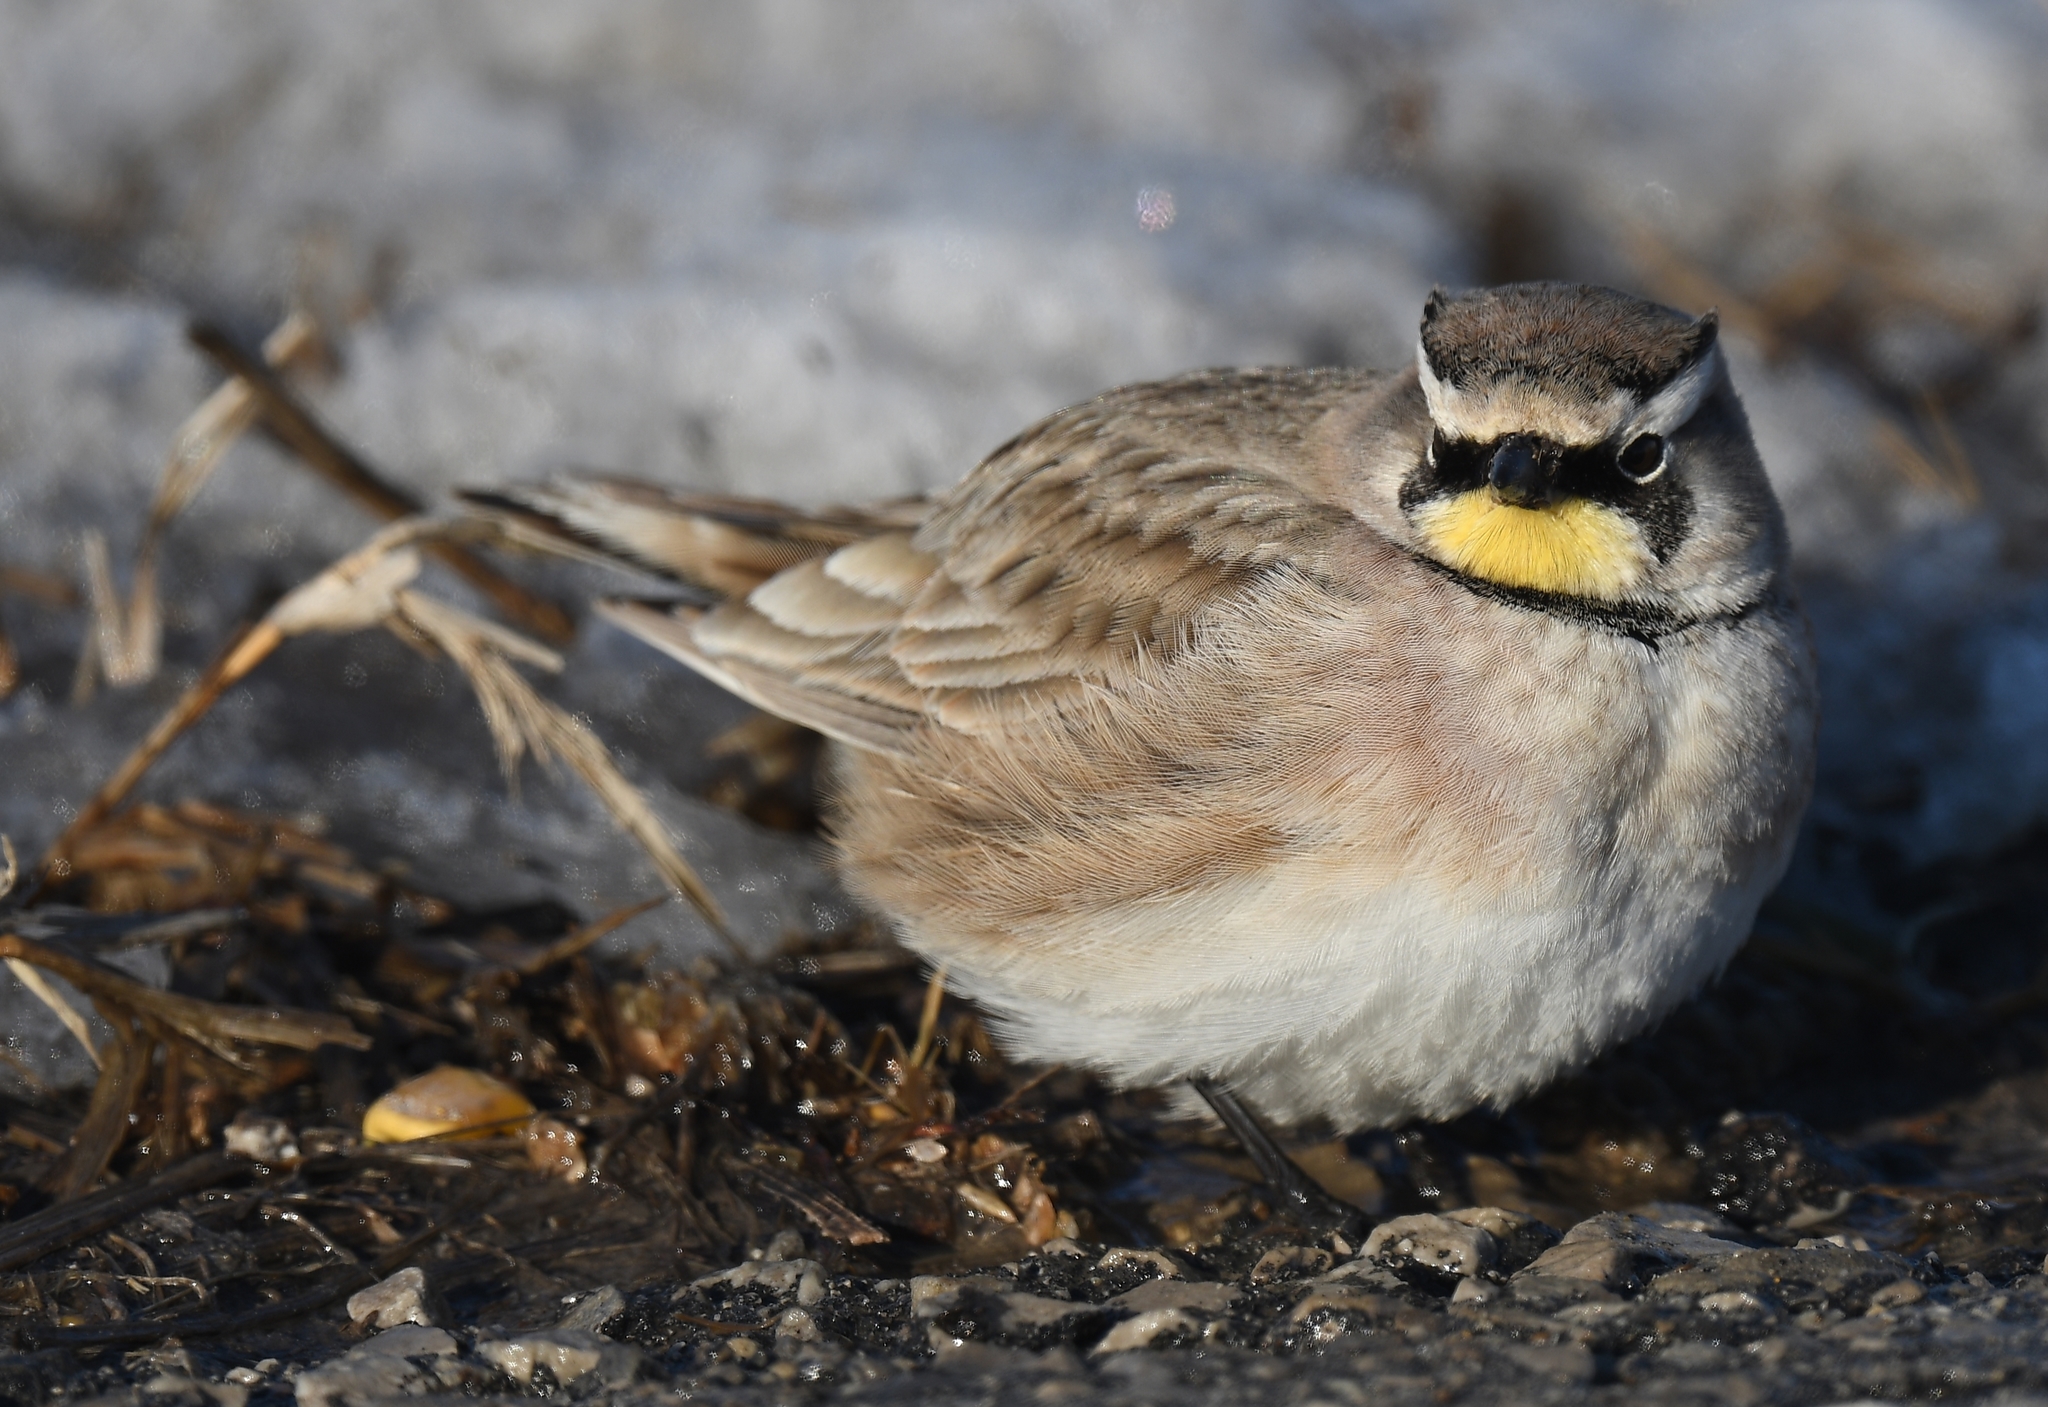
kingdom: Animalia
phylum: Chordata
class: Aves
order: Passeriformes
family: Alaudidae
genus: Eremophila
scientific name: Eremophila alpestris
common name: Horned lark
